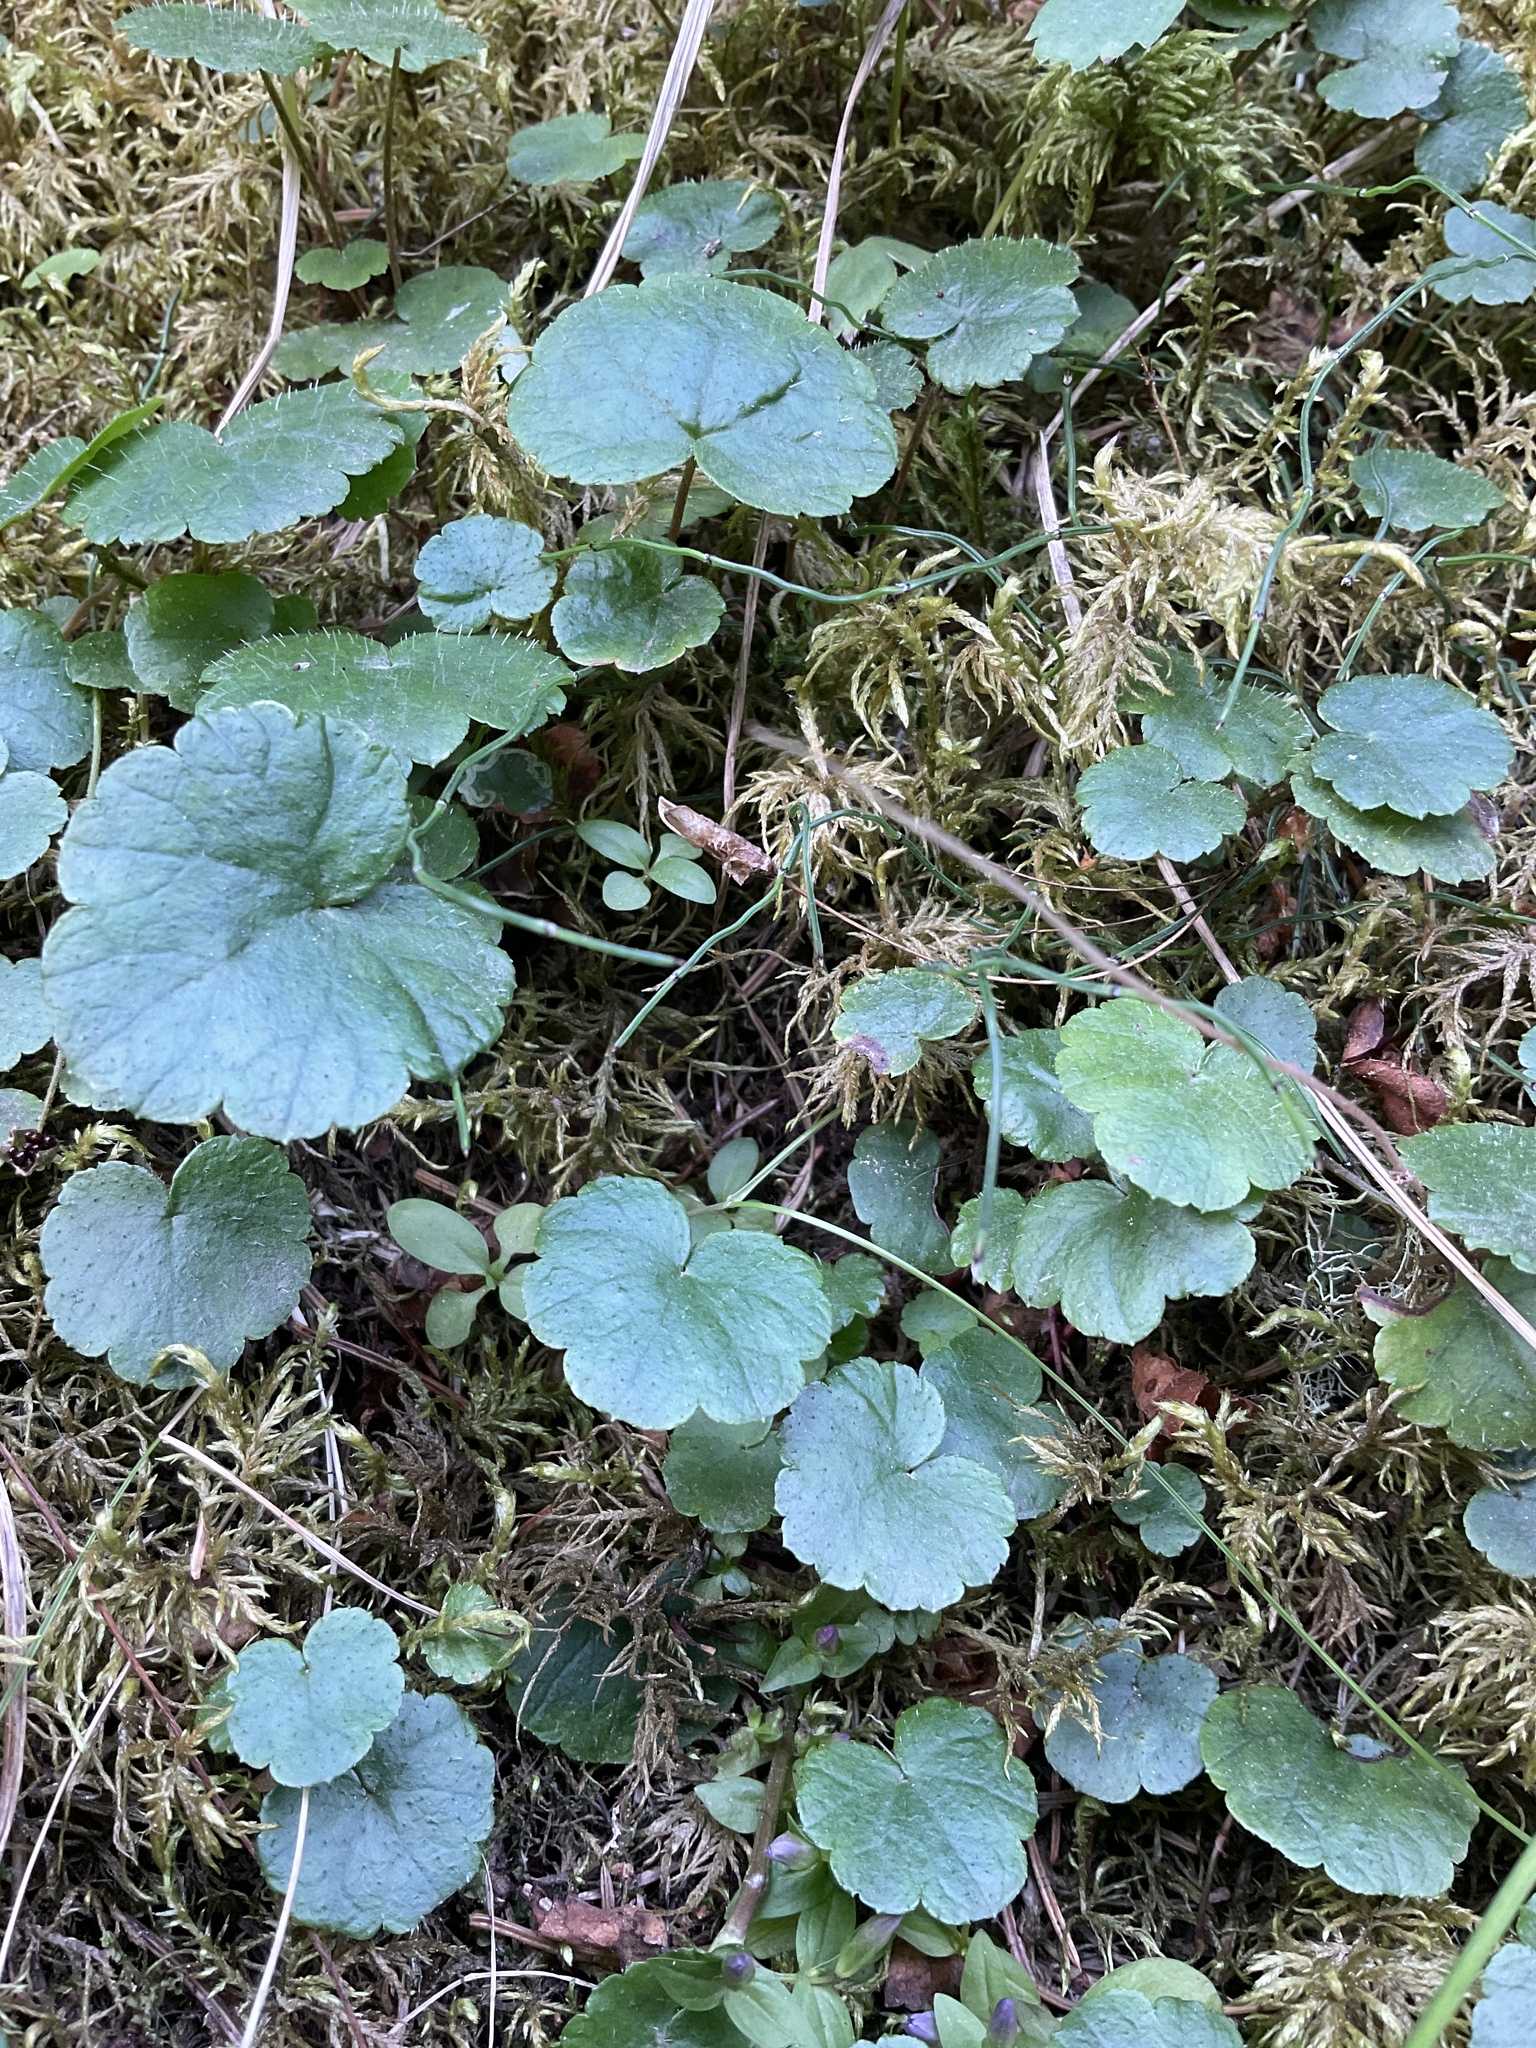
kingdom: Plantae
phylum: Tracheophyta
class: Magnoliopsida
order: Saxifragales
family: Saxifragaceae
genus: Mitella
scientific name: Mitella nuda
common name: Bare-stemmed bishop's-cap
